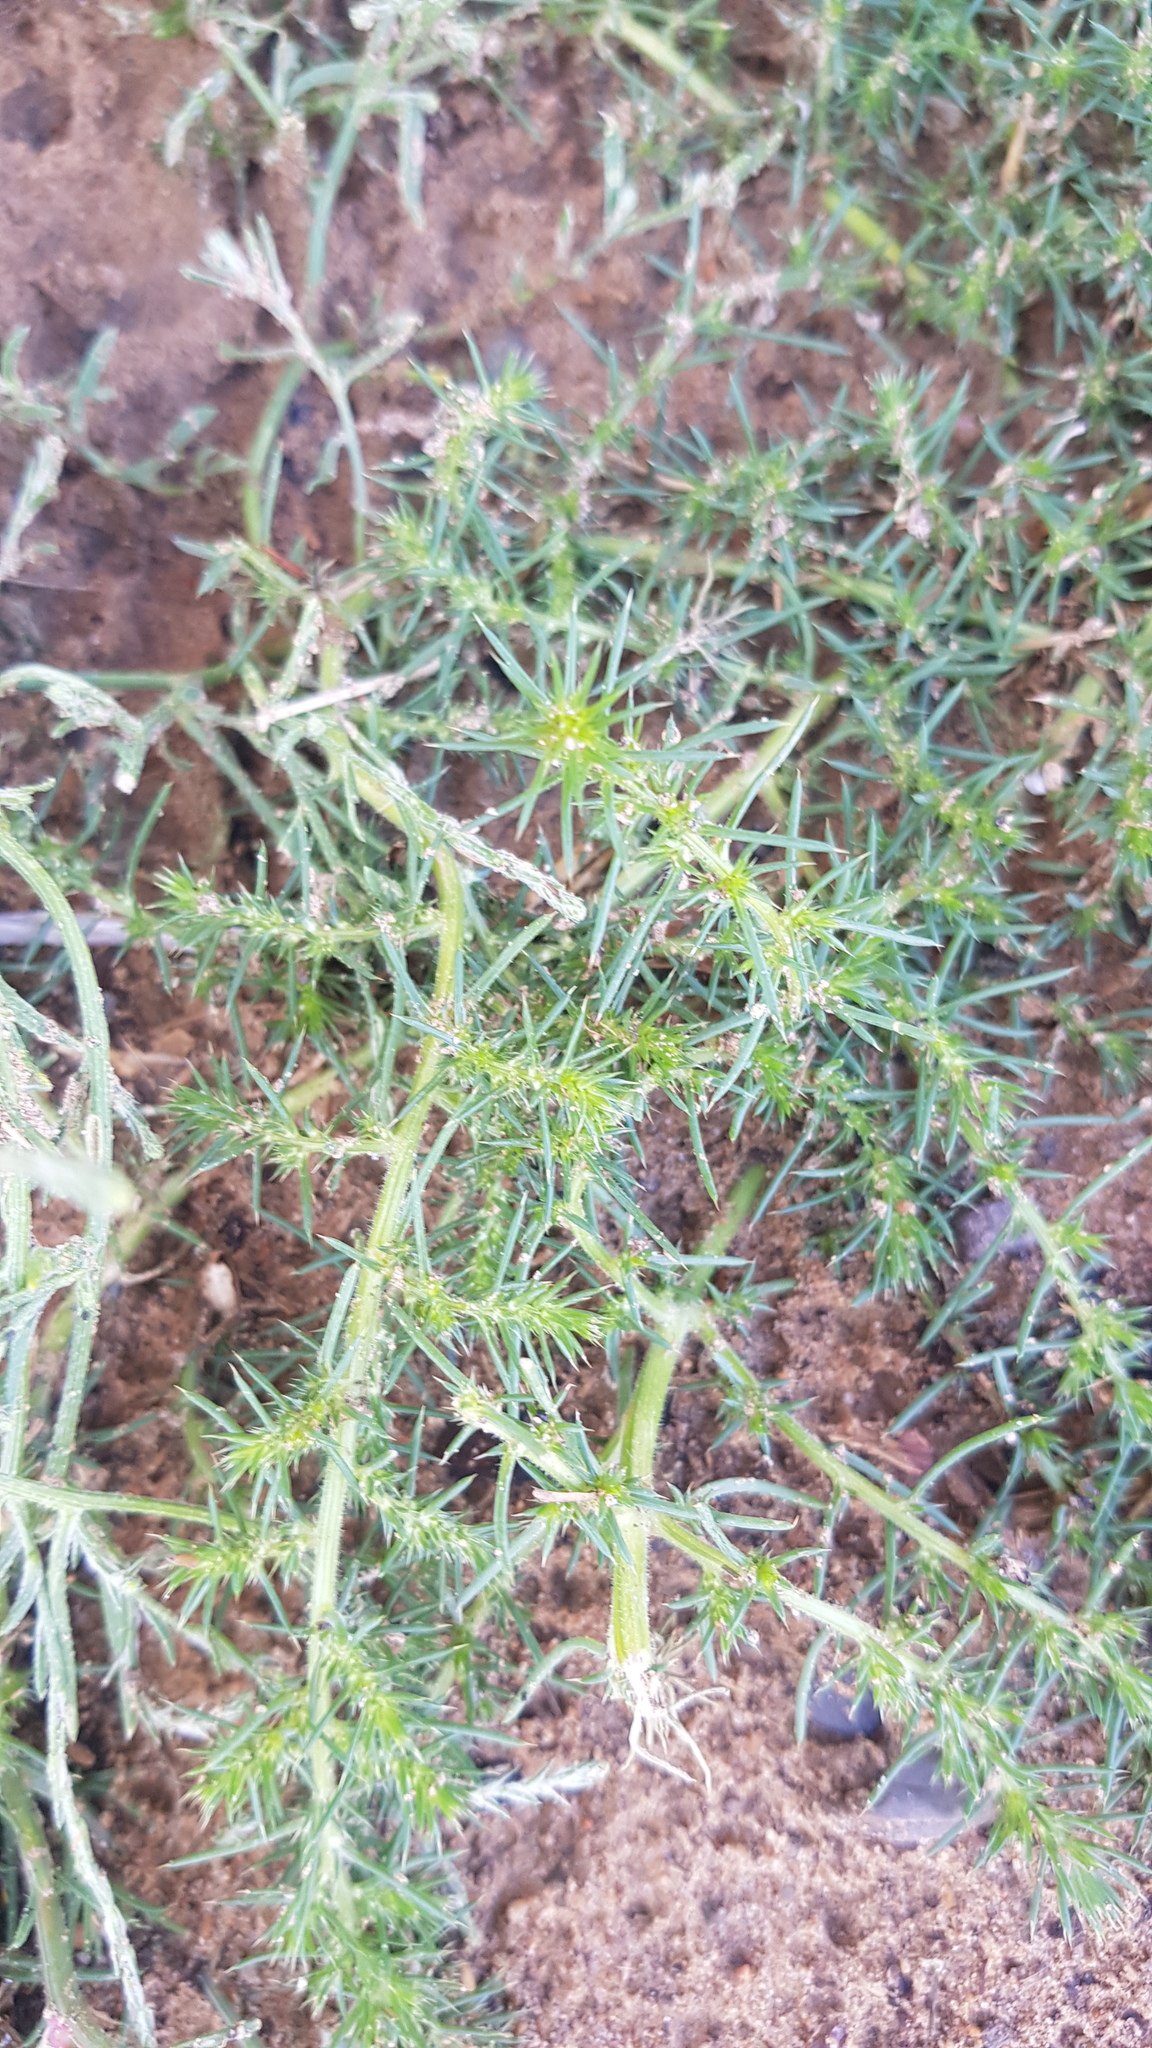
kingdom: Plantae
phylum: Tracheophyta
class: Magnoliopsida
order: Caryophyllales
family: Amaranthaceae
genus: Salsola
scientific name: Salsola collina
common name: Tumbleweed
